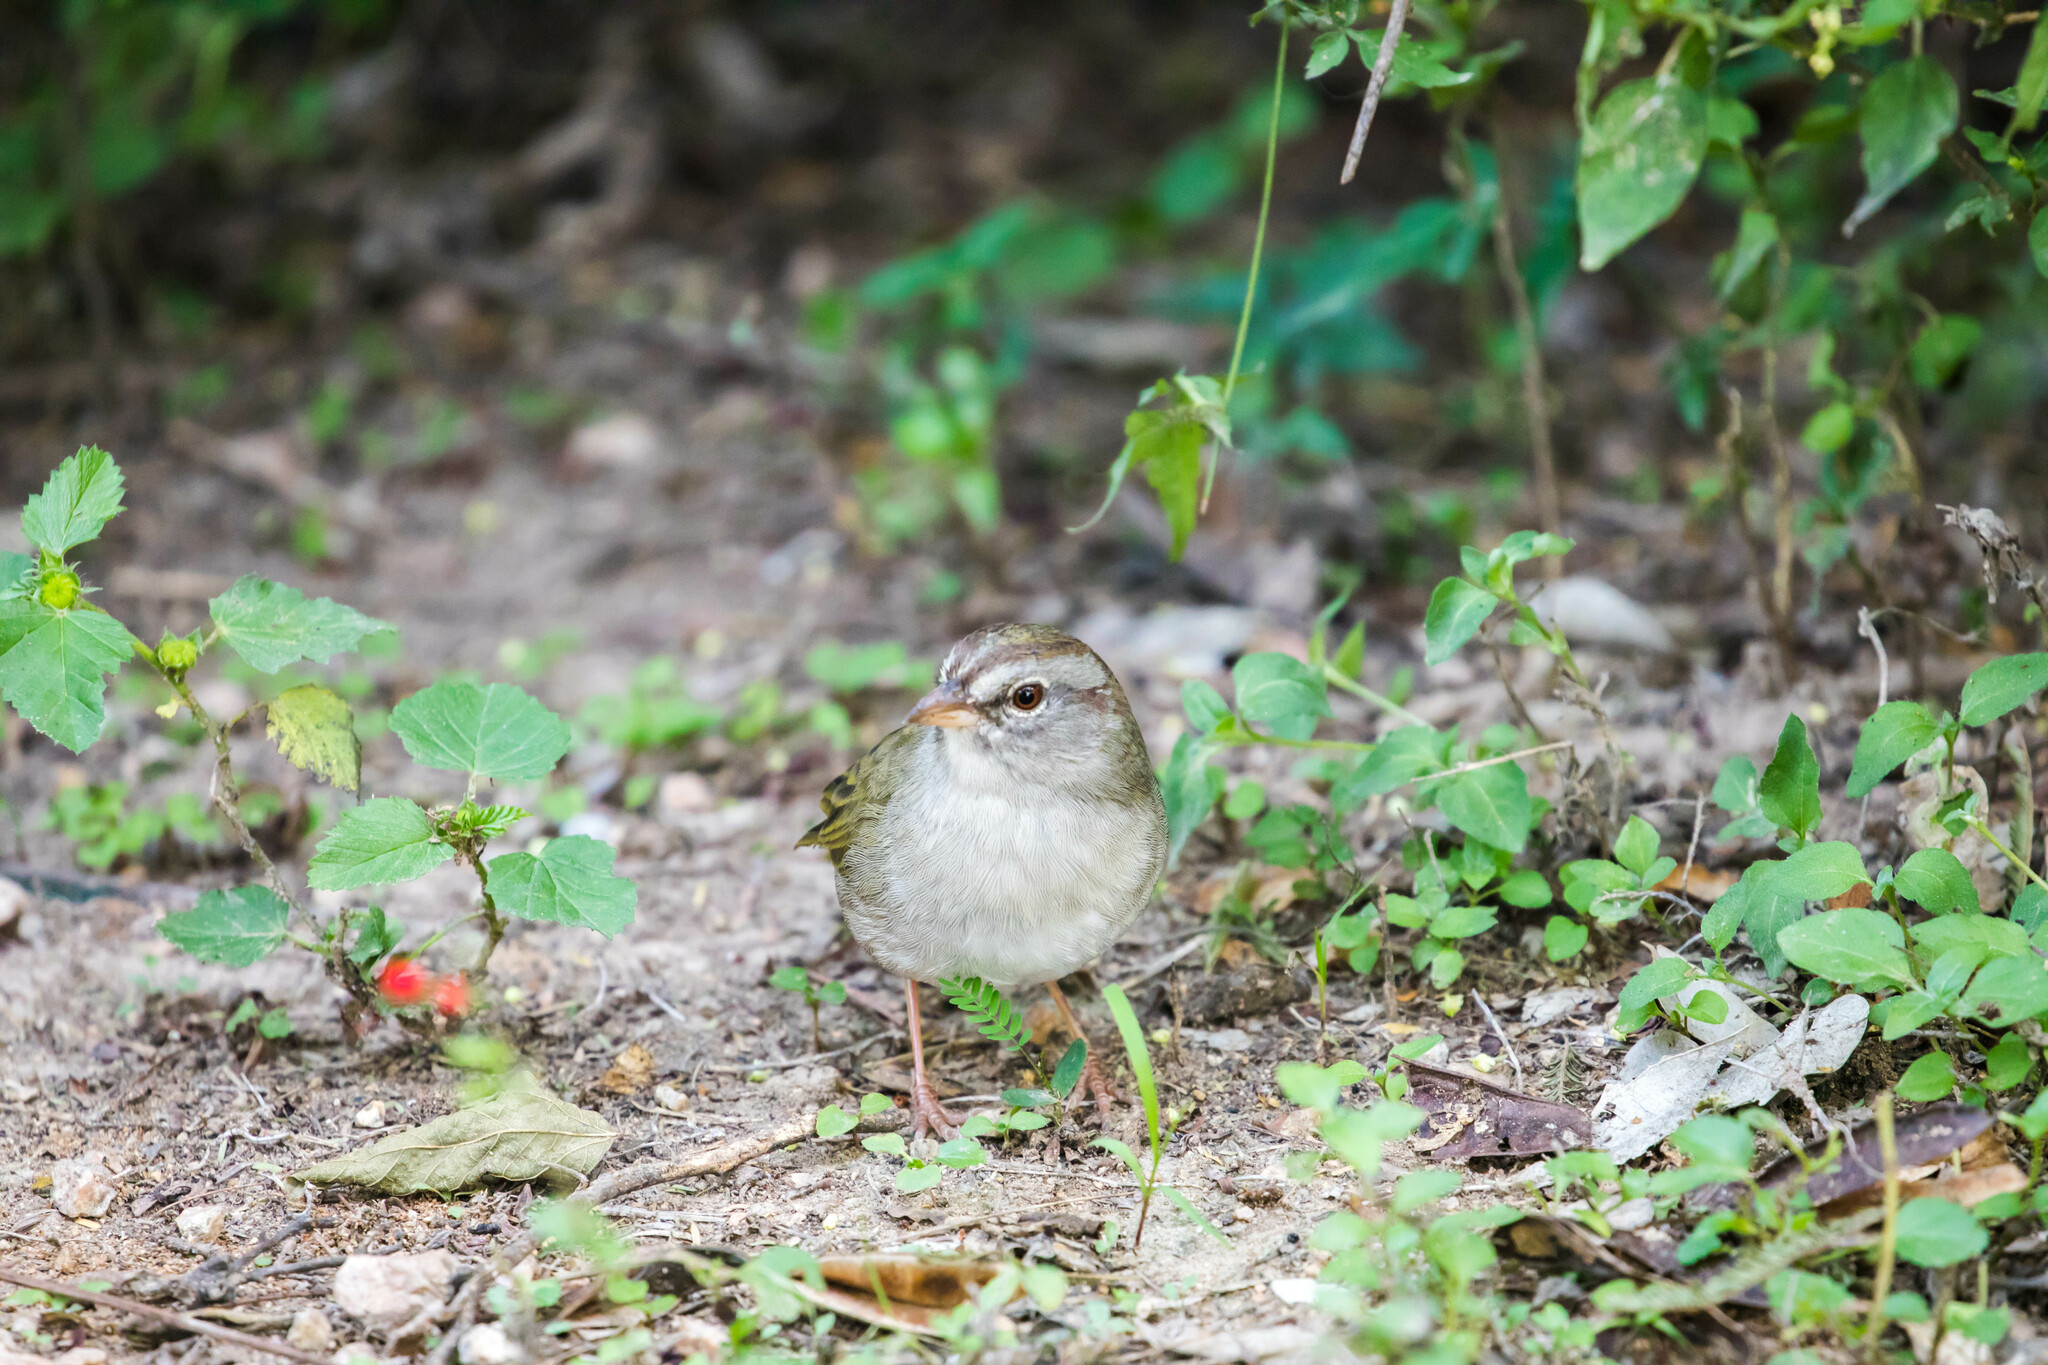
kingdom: Animalia
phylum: Chordata
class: Aves
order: Passeriformes
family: Passerellidae
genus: Arremonops
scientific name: Arremonops rufivirgatus
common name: Olive sparrow
